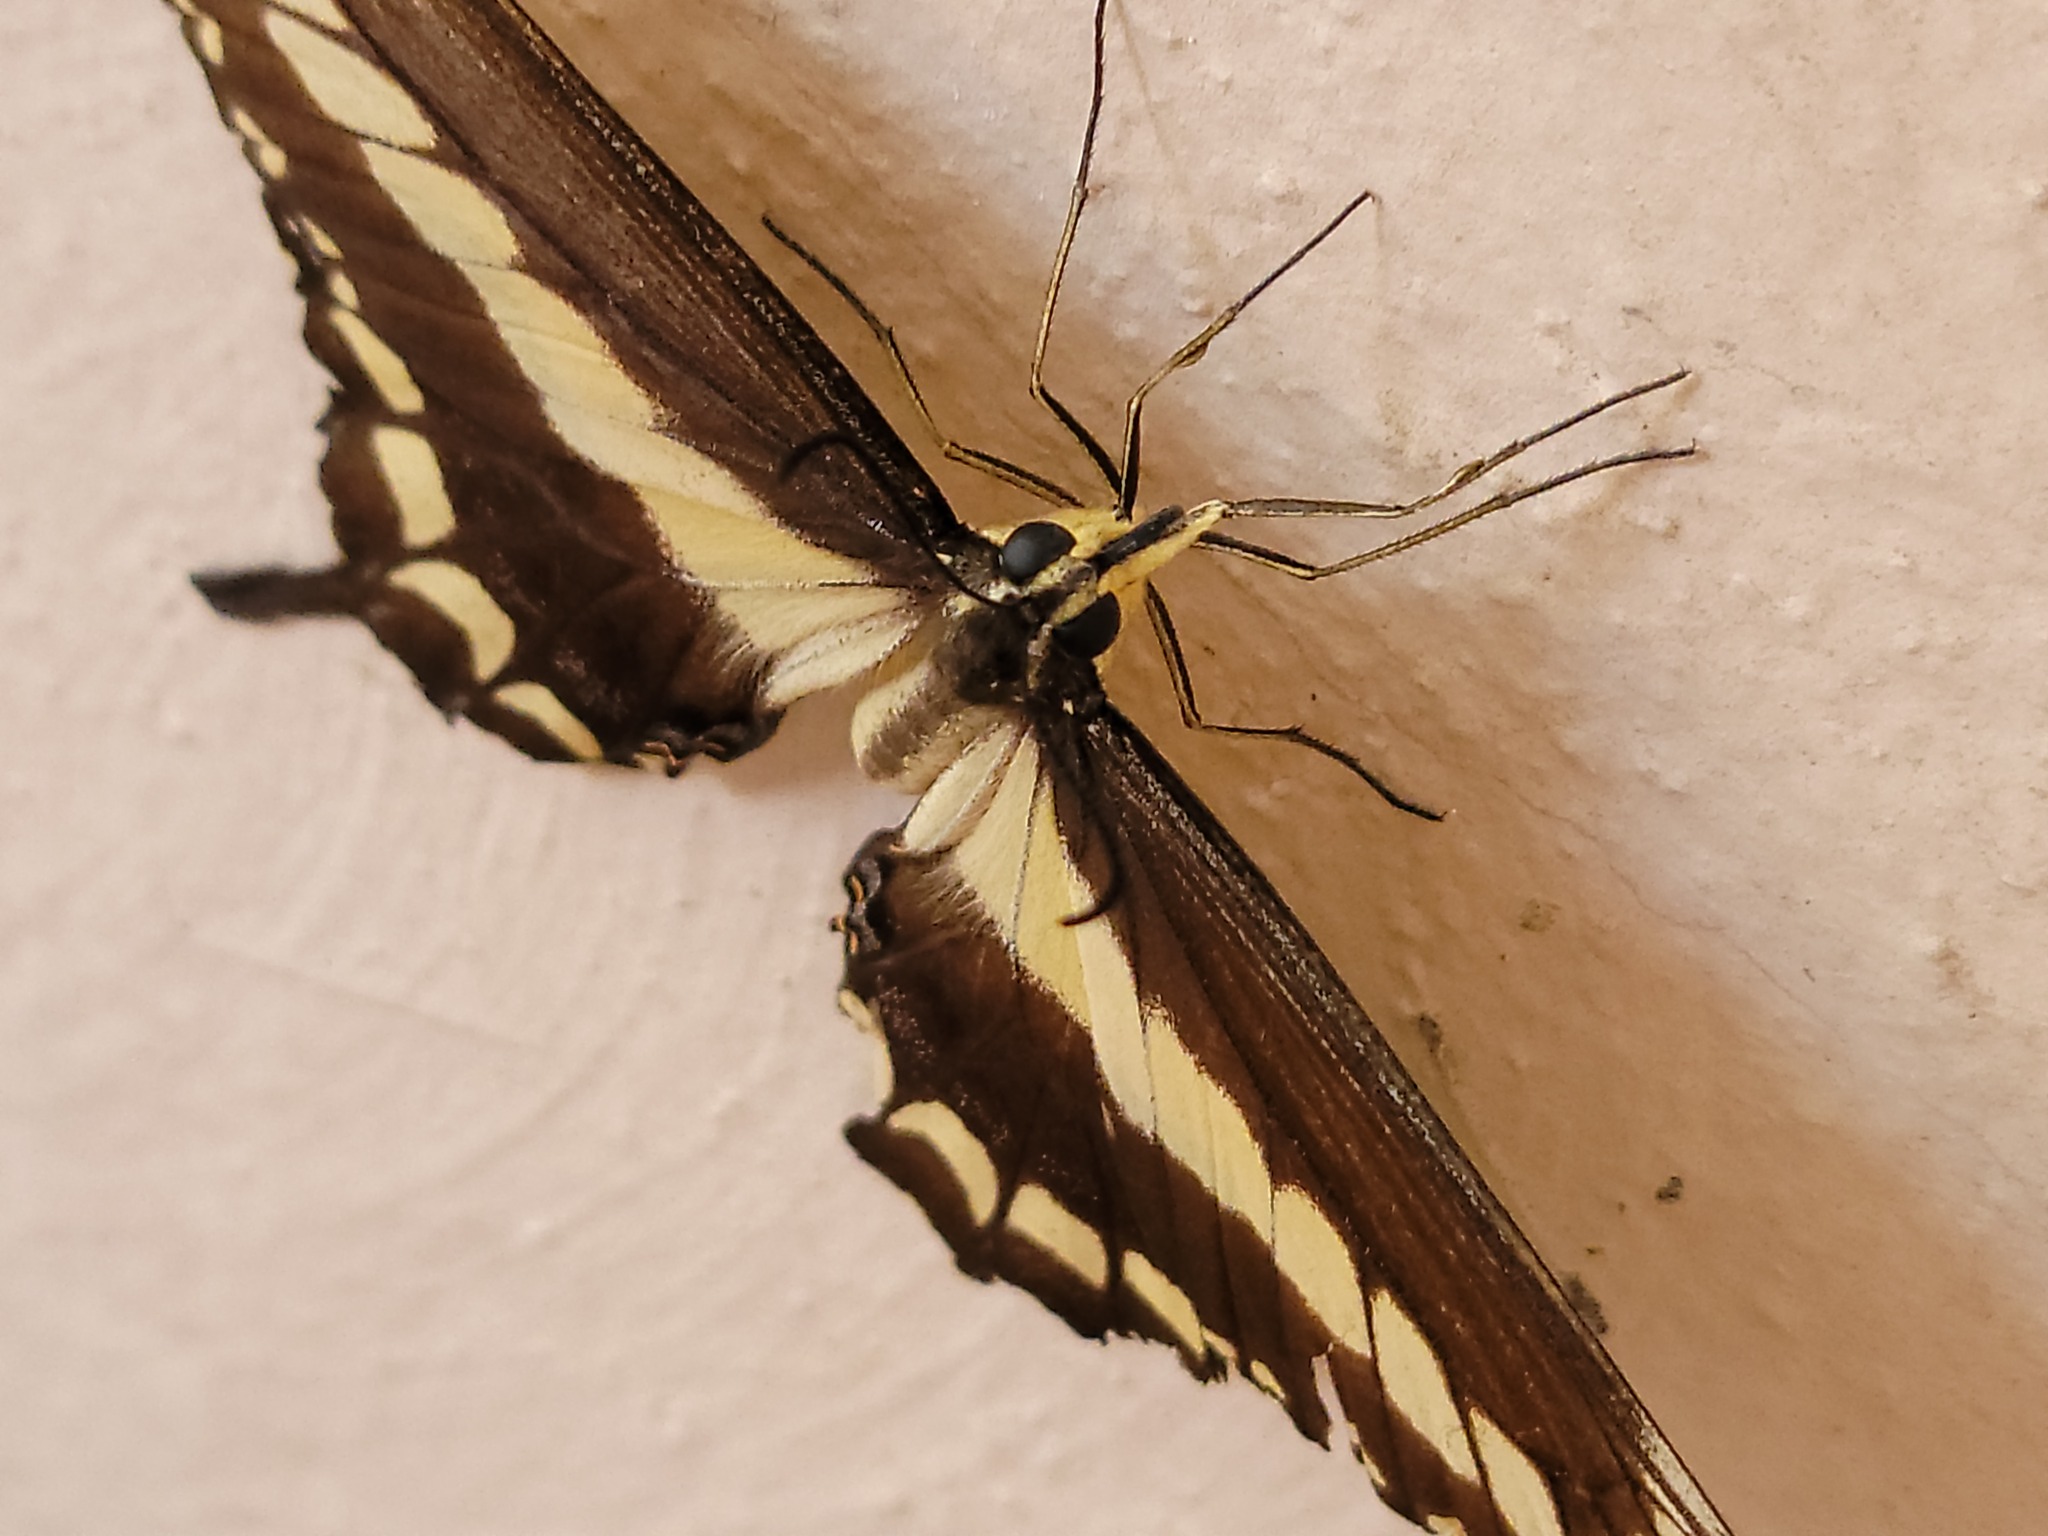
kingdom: Animalia
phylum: Arthropoda
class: Insecta
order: Lepidoptera
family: Papilionidae
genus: Papilio
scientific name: Papilio ornythion
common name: Ornythion swallowtail
